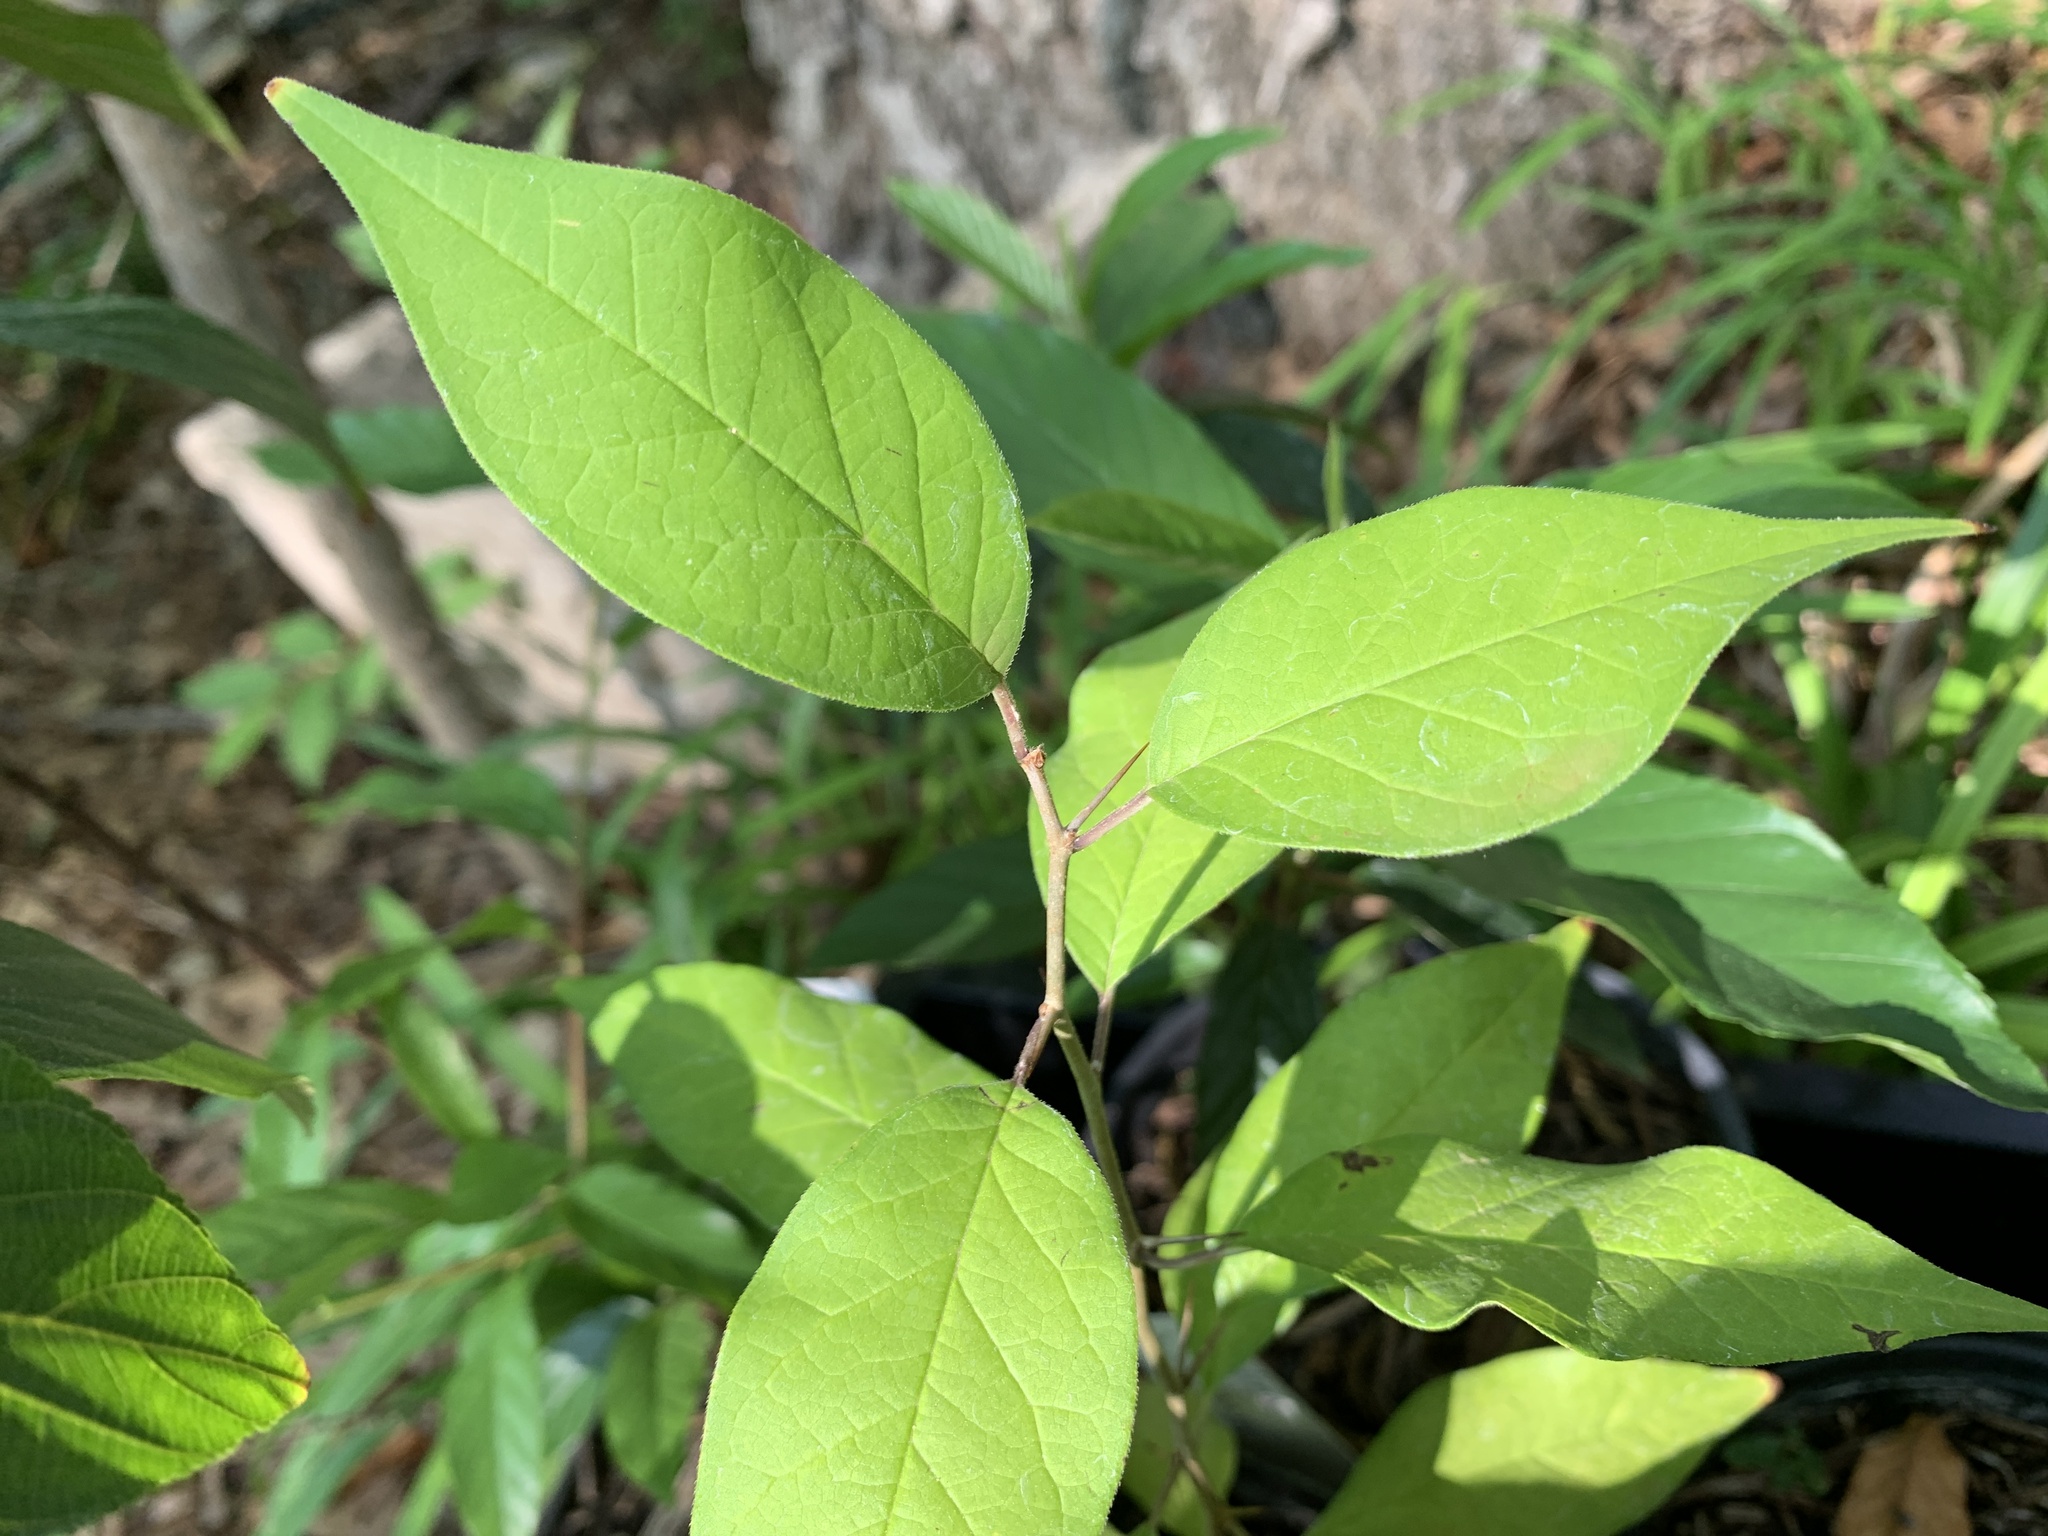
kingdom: Plantae
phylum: Tracheophyta
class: Magnoliopsida
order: Rosales
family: Moraceae
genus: Maclura
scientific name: Maclura pomifera
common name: Osage-orange
